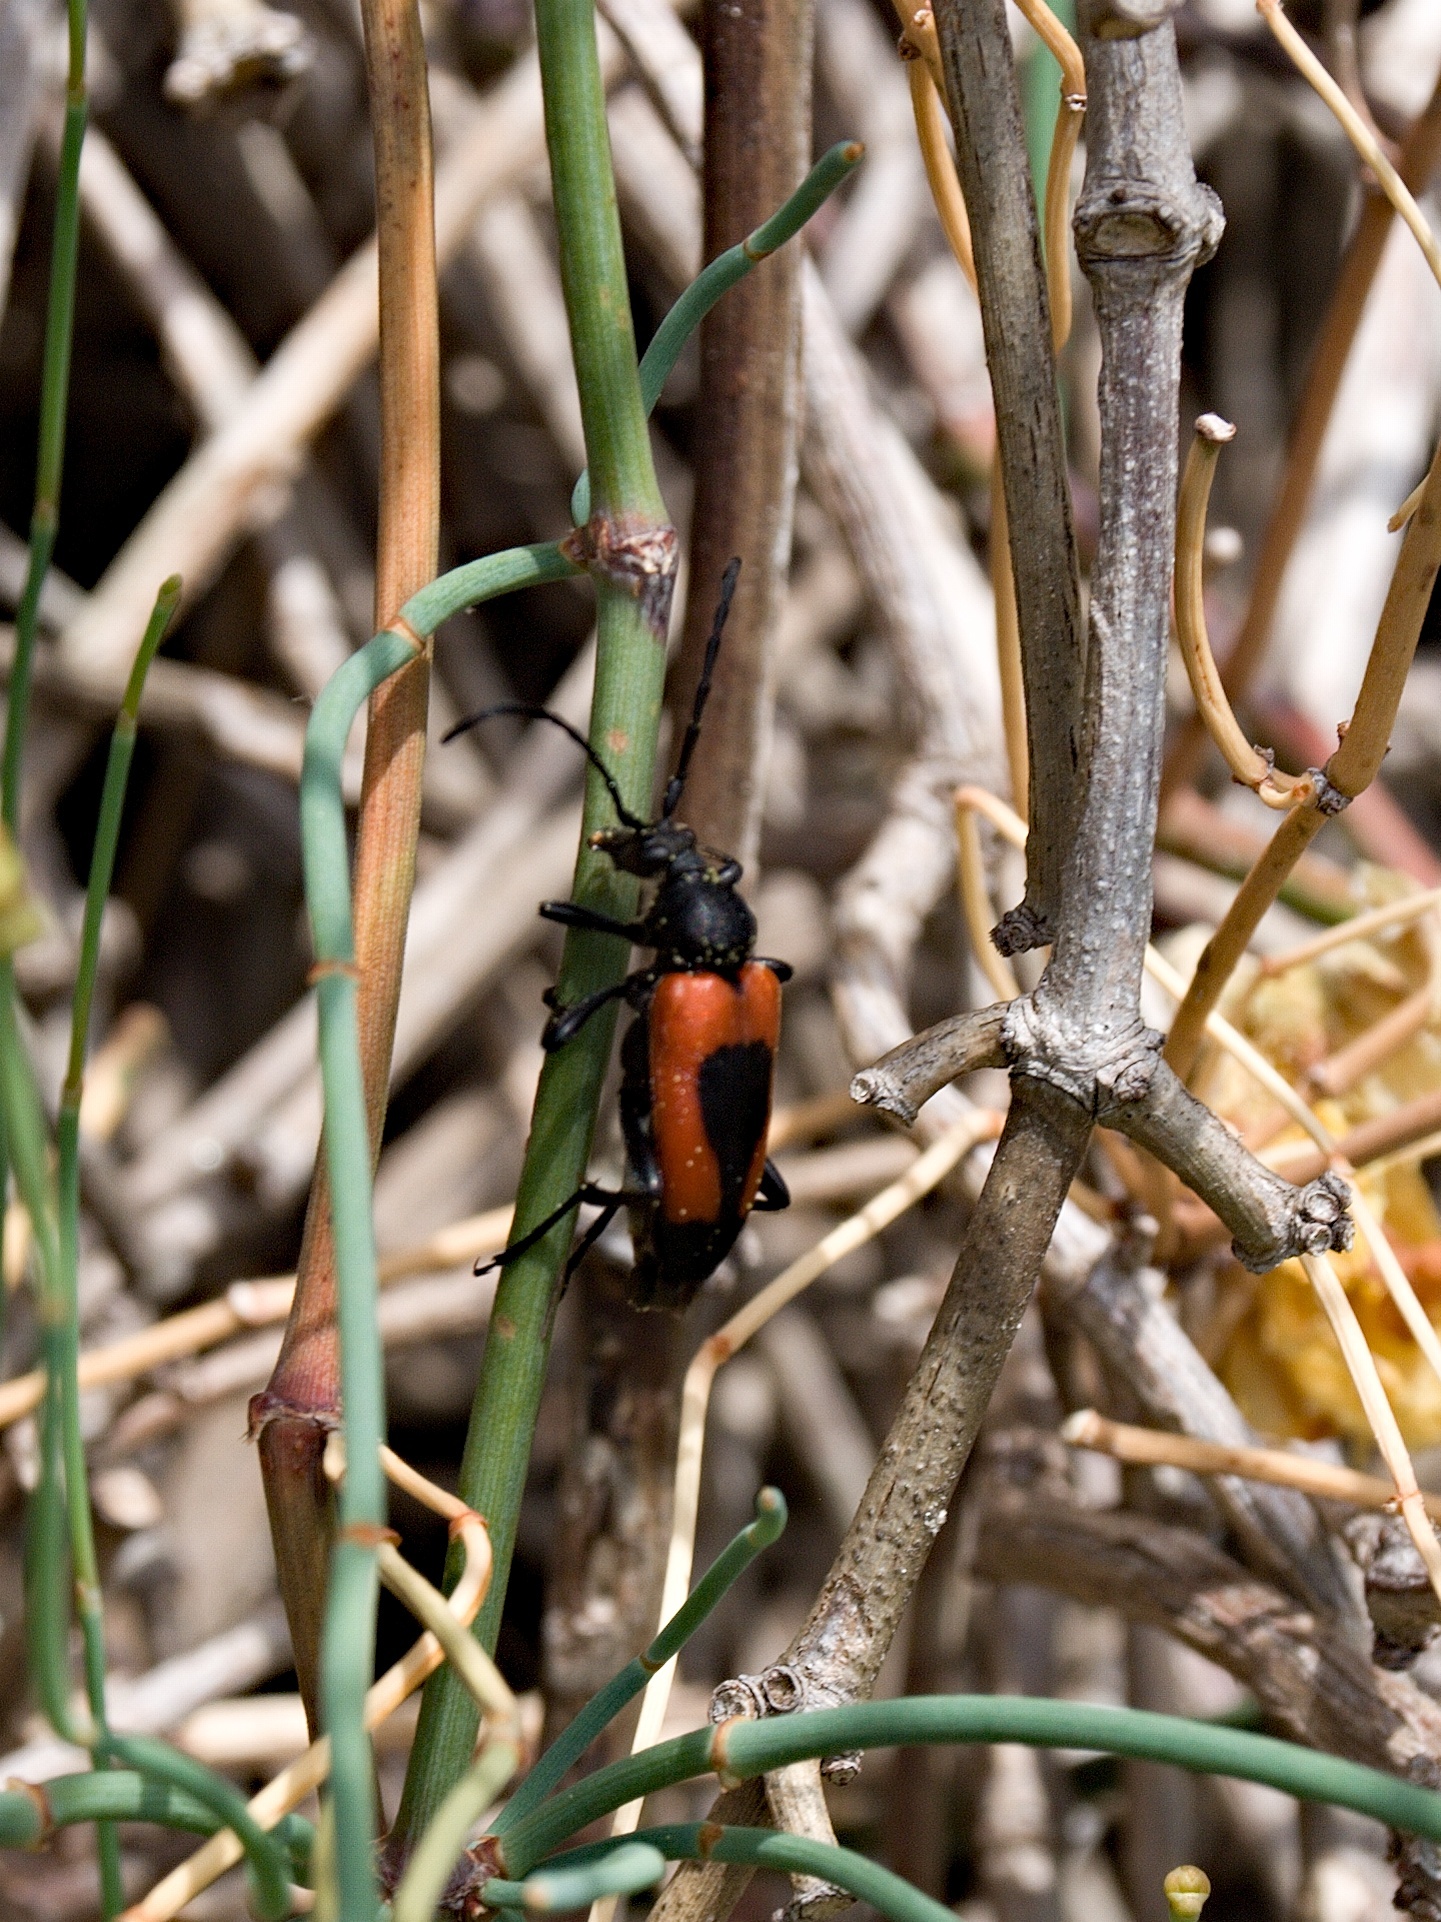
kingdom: Animalia
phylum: Arthropoda
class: Insecta
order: Coleoptera
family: Cerambycidae
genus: Stictoleptura
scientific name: Stictoleptura cordigera
